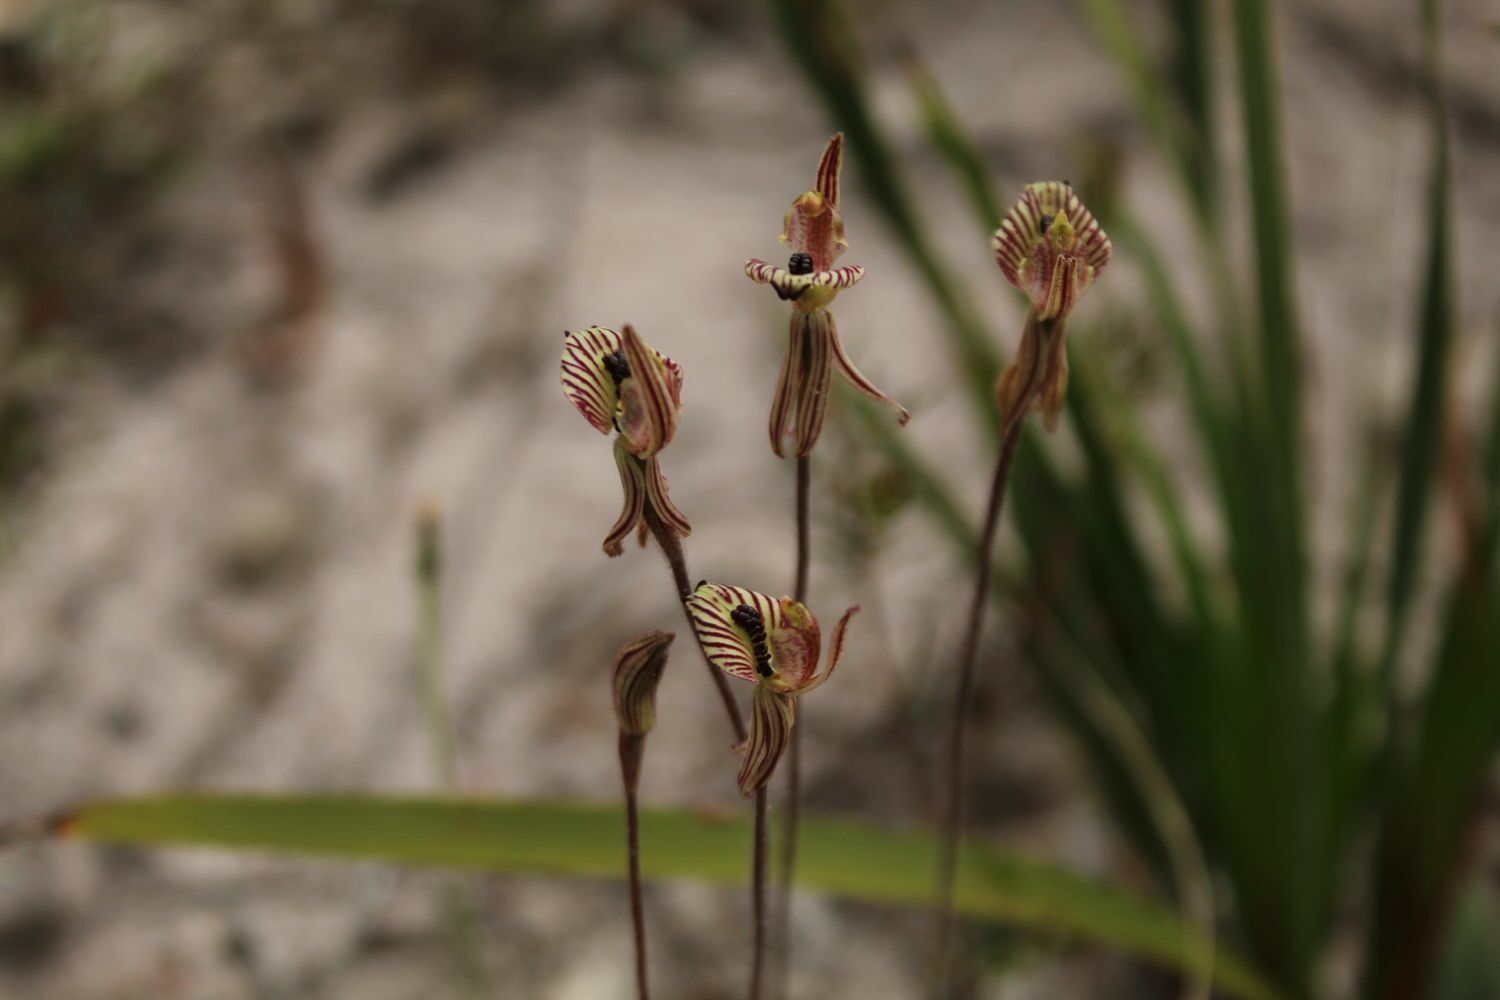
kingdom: Plantae
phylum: Tracheophyta
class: Liliopsida
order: Asparagales
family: Orchidaceae
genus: Caladenia
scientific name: Caladenia cairnsiana
